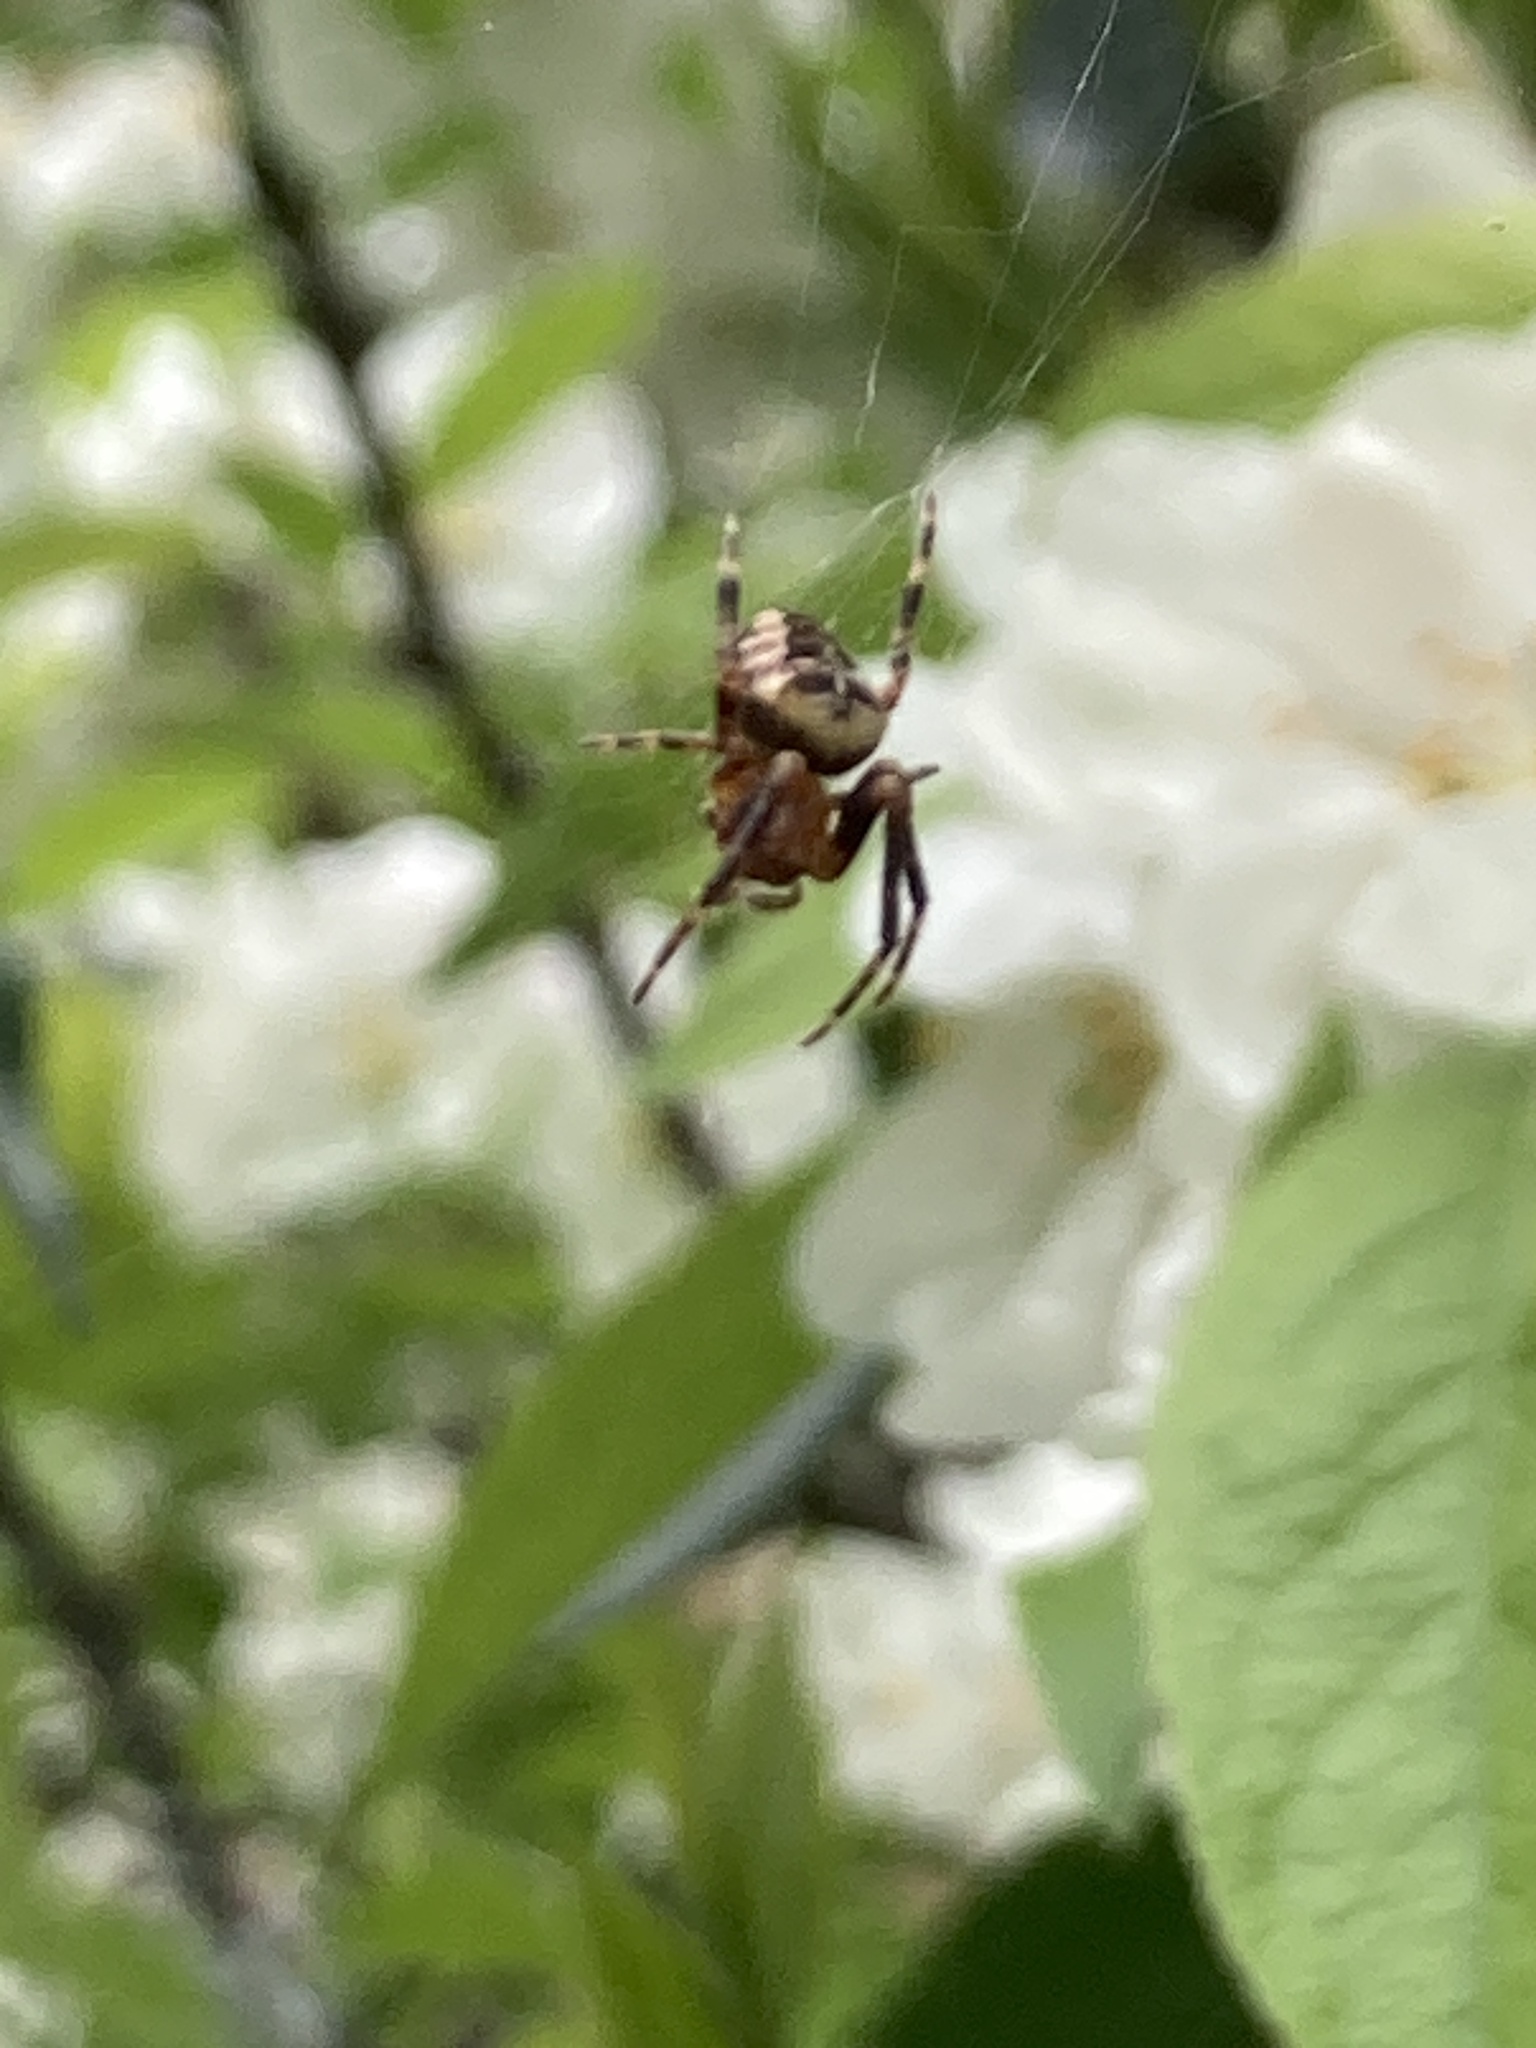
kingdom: Animalia
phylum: Arthropoda
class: Arachnida
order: Araneae
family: Araneidae
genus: Araneus
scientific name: Araneus diadematus
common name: Cross orbweaver
